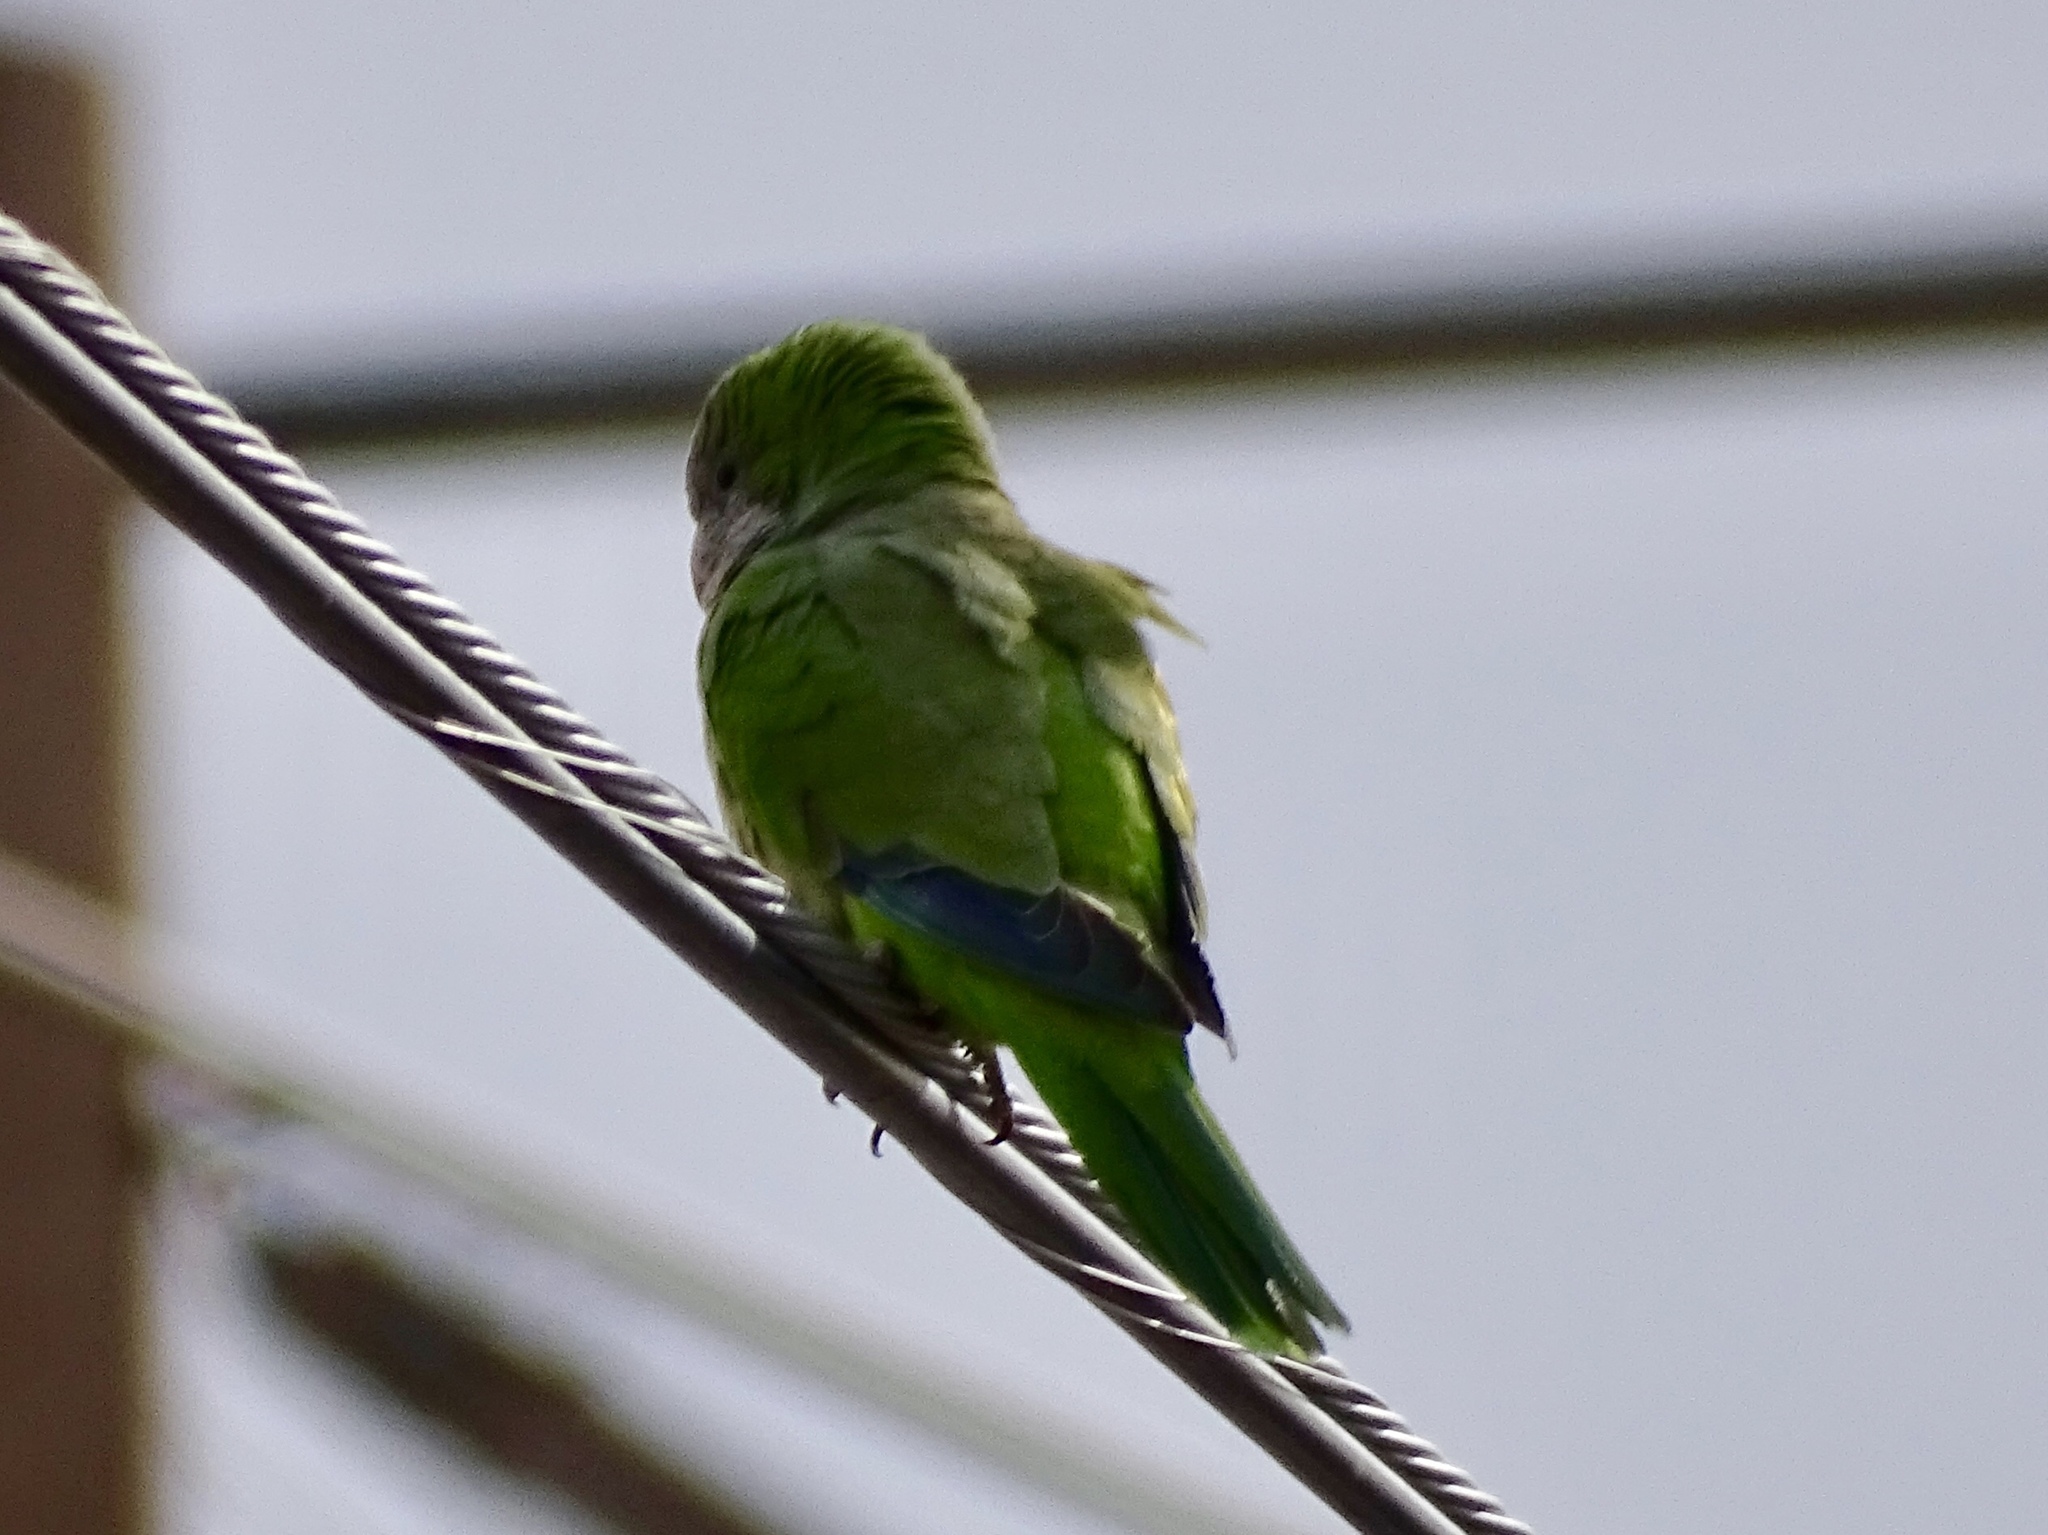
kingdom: Animalia
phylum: Chordata
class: Aves
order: Psittaciformes
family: Psittacidae
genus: Myiopsitta
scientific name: Myiopsitta monachus
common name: Monk parakeet
